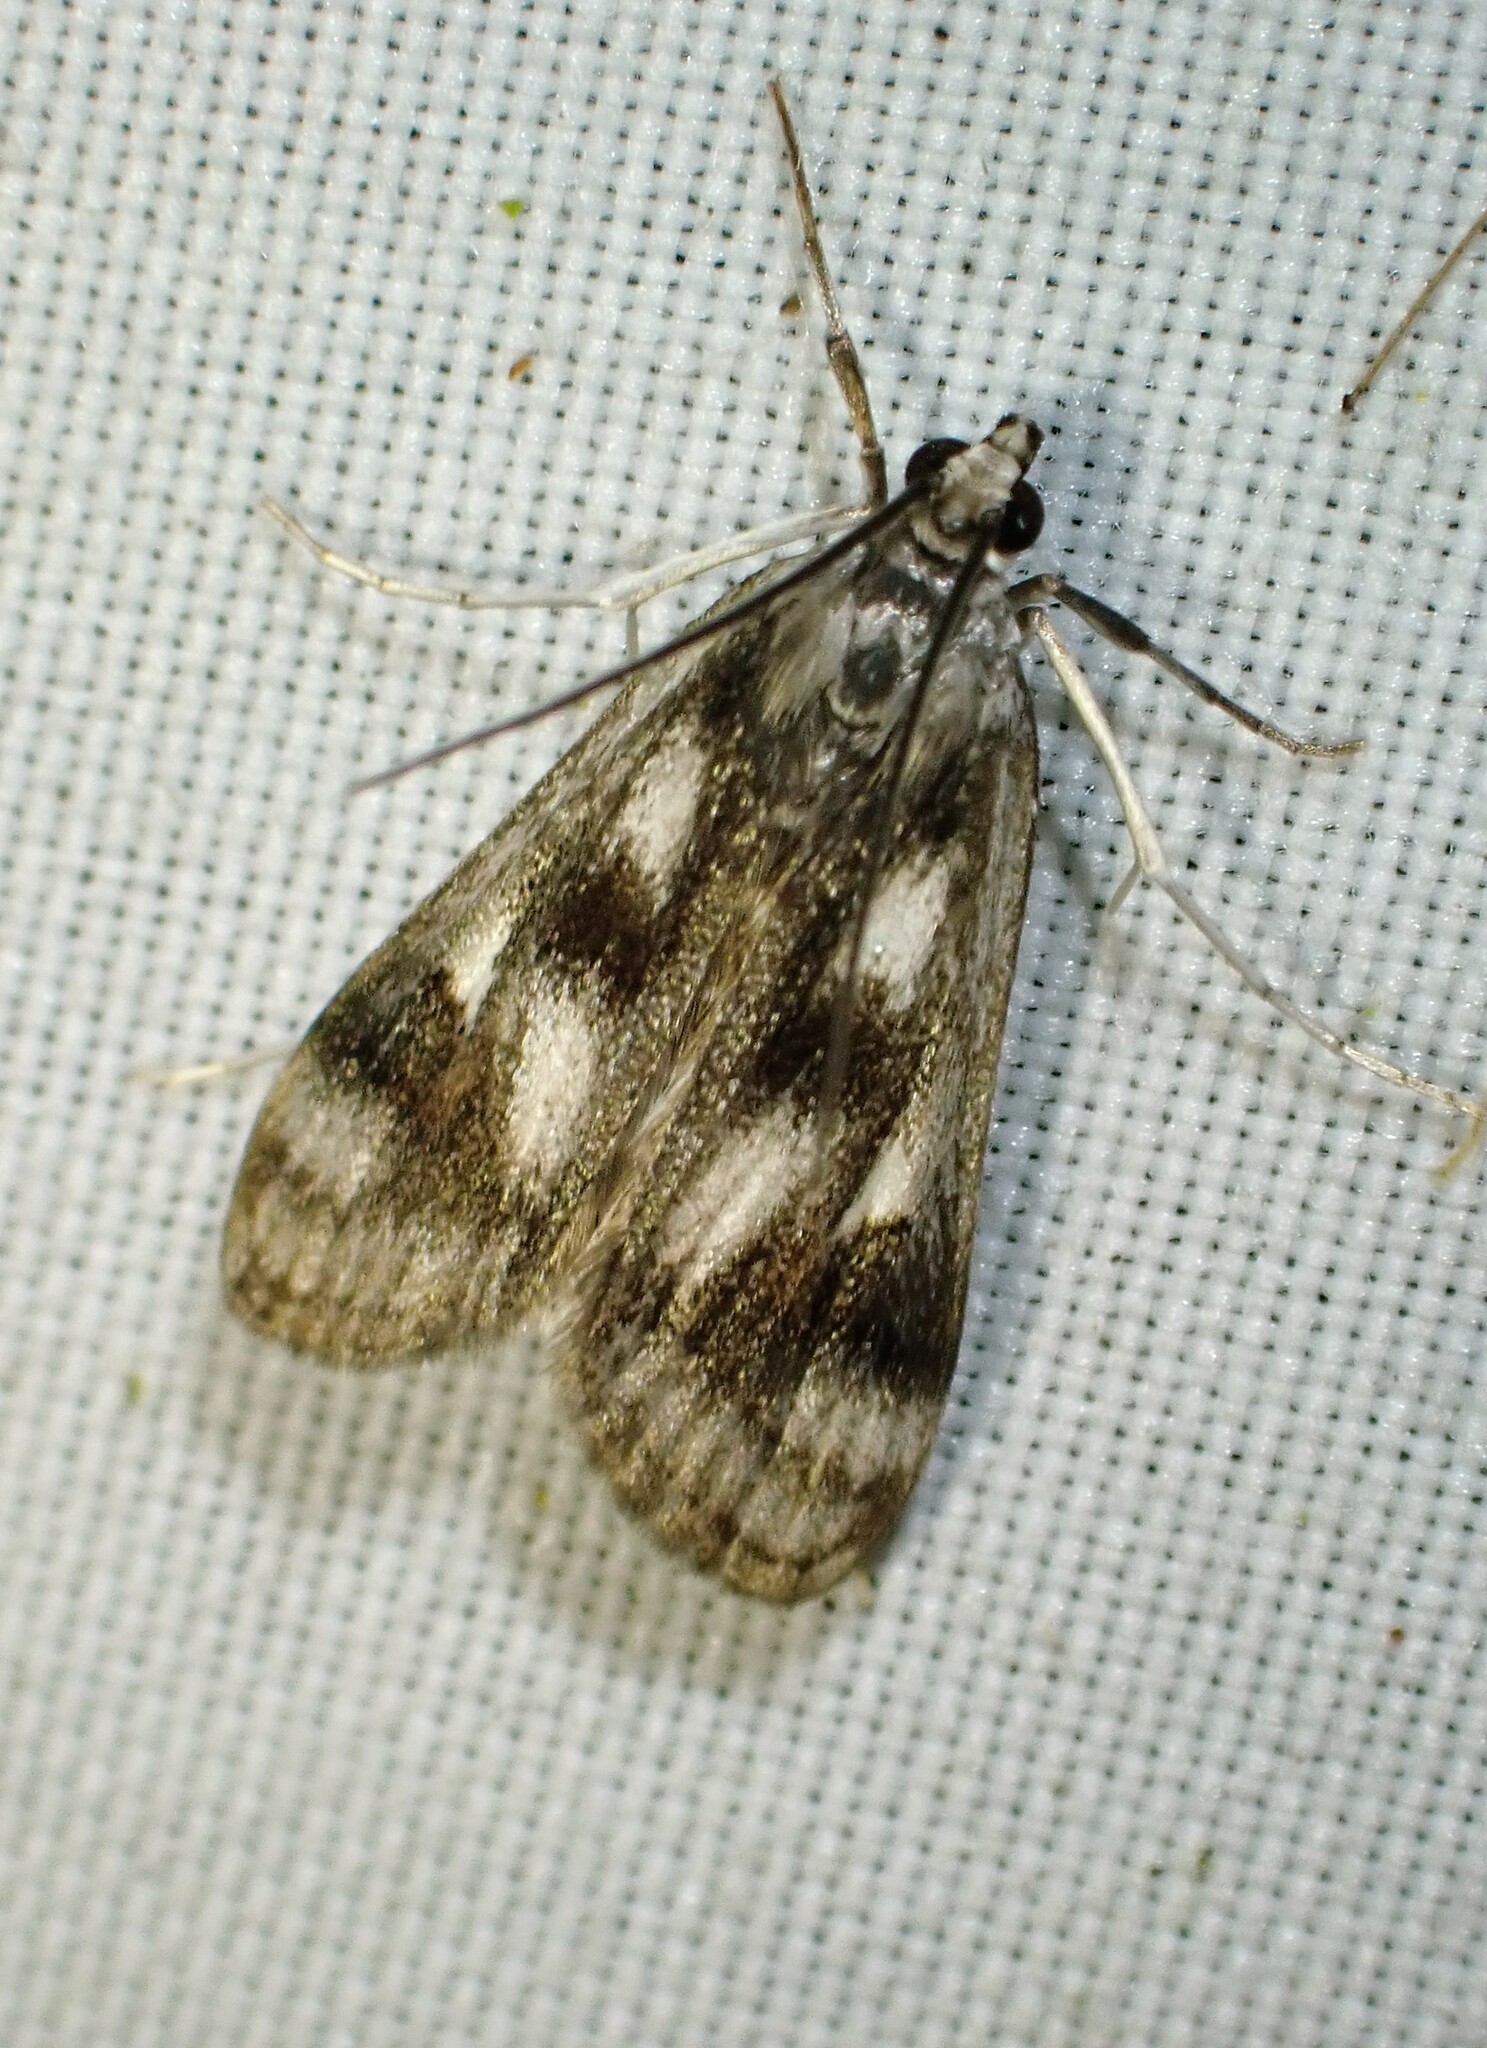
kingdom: Animalia
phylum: Arthropoda
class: Insecta
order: Lepidoptera
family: Crambidae
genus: Parapoynx
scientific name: Parapoynx maculalis
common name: Polymorphic pondweed moth
